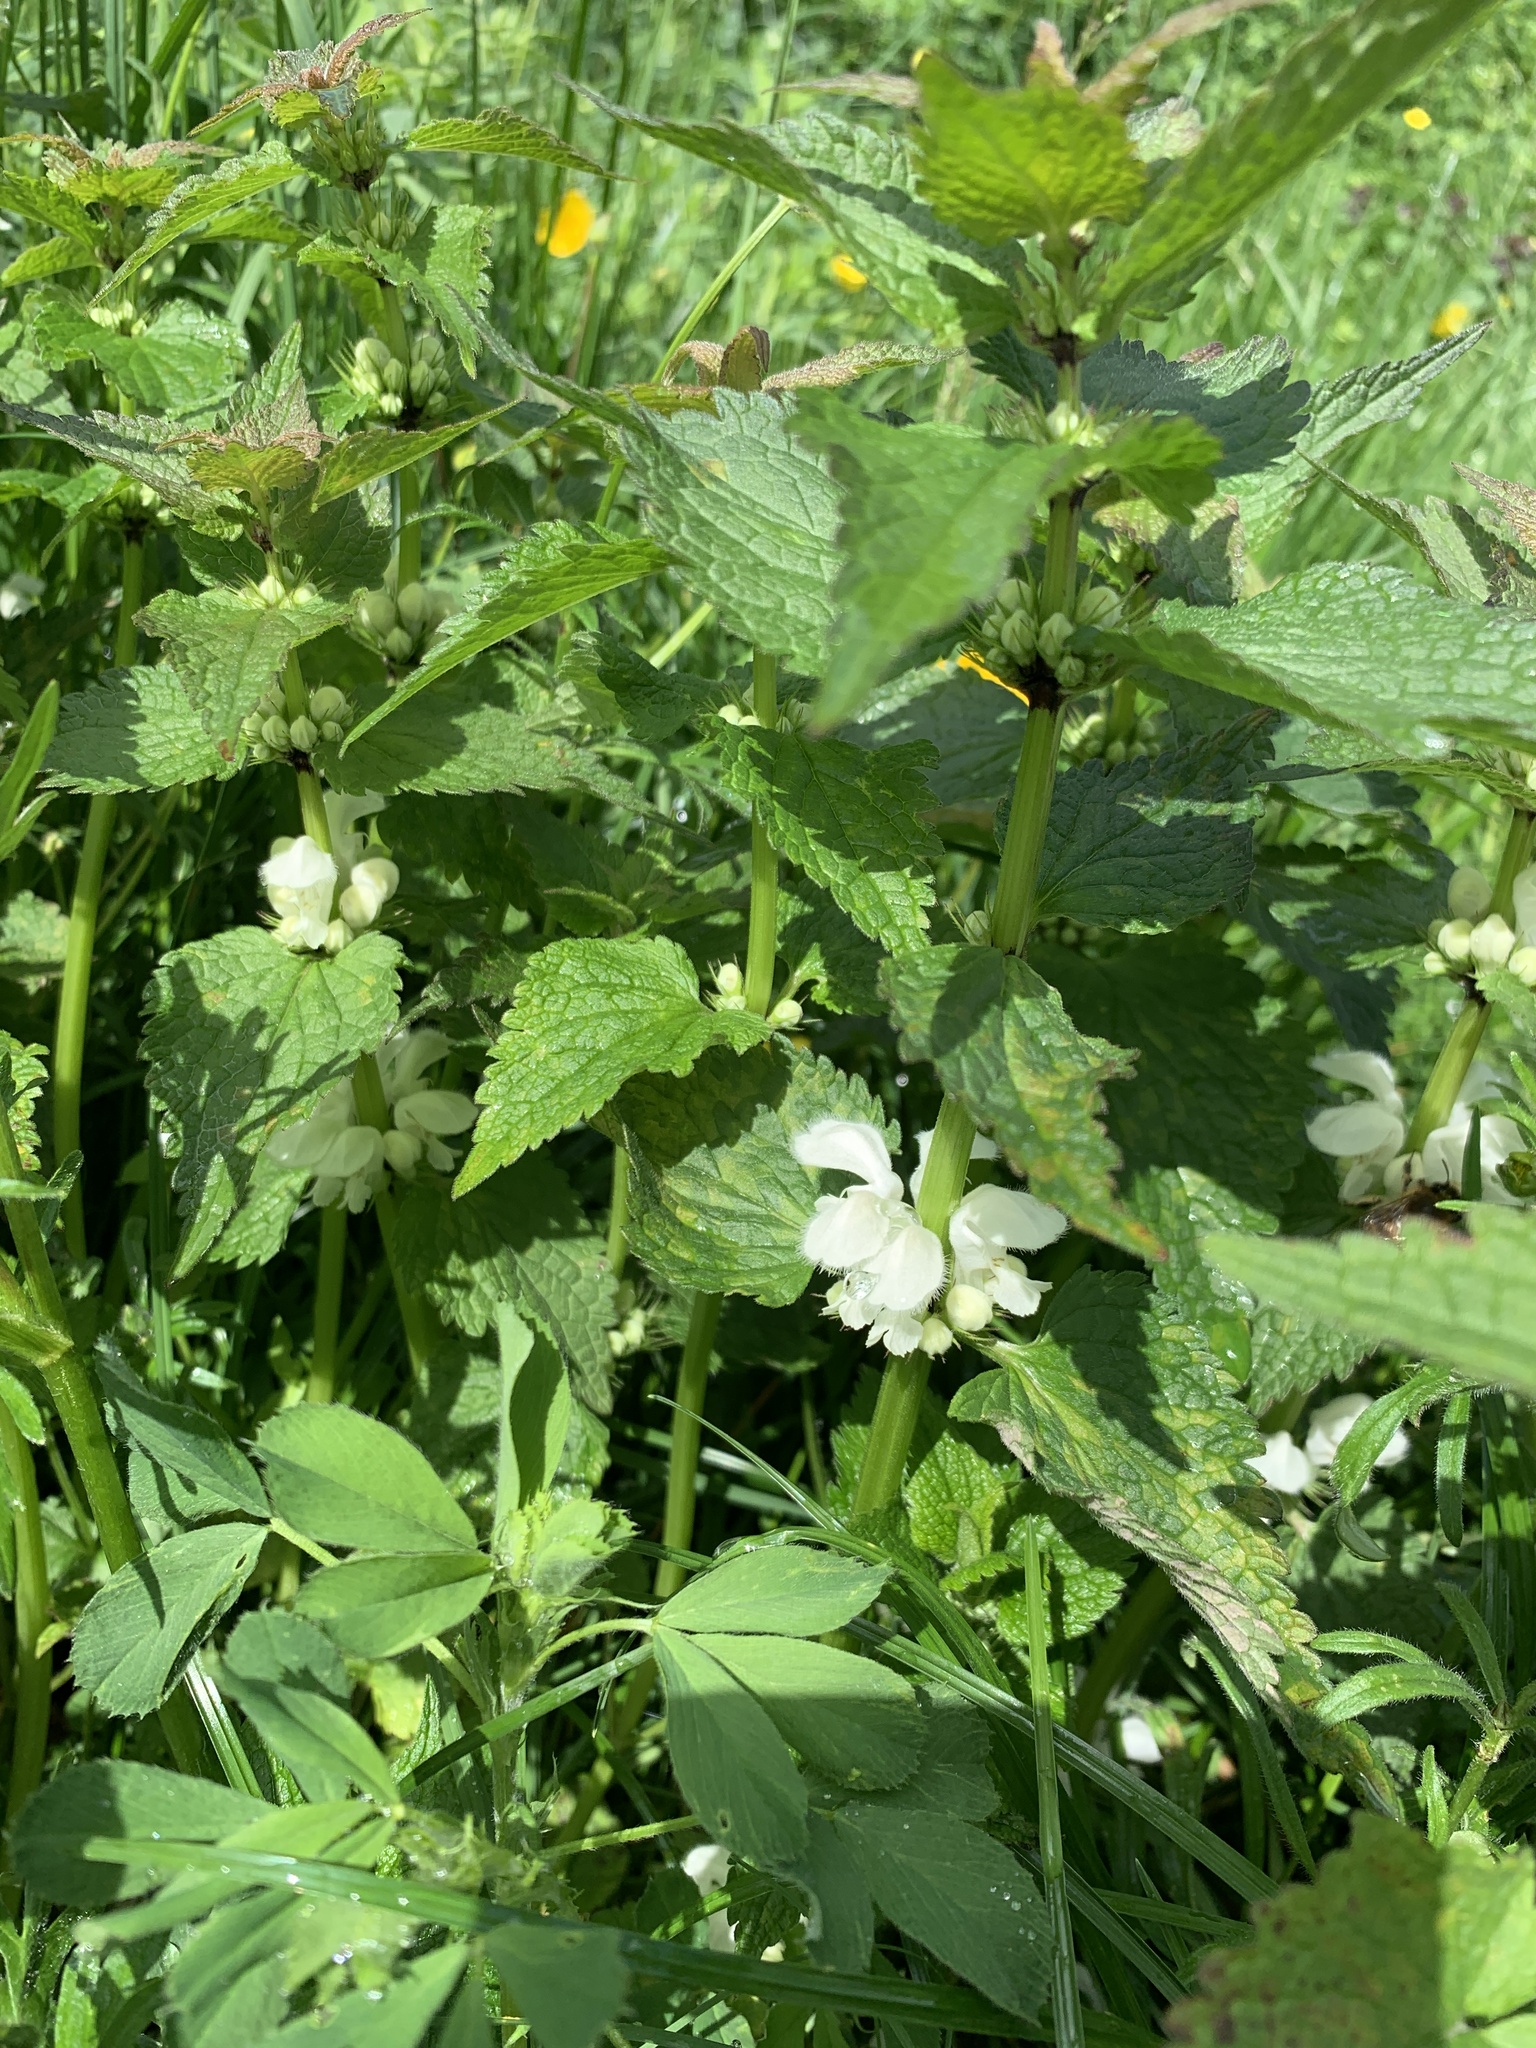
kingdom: Plantae
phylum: Tracheophyta
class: Magnoliopsida
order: Lamiales
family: Lamiaceae
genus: Lamium
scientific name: Lamium album
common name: White dead-nettle
